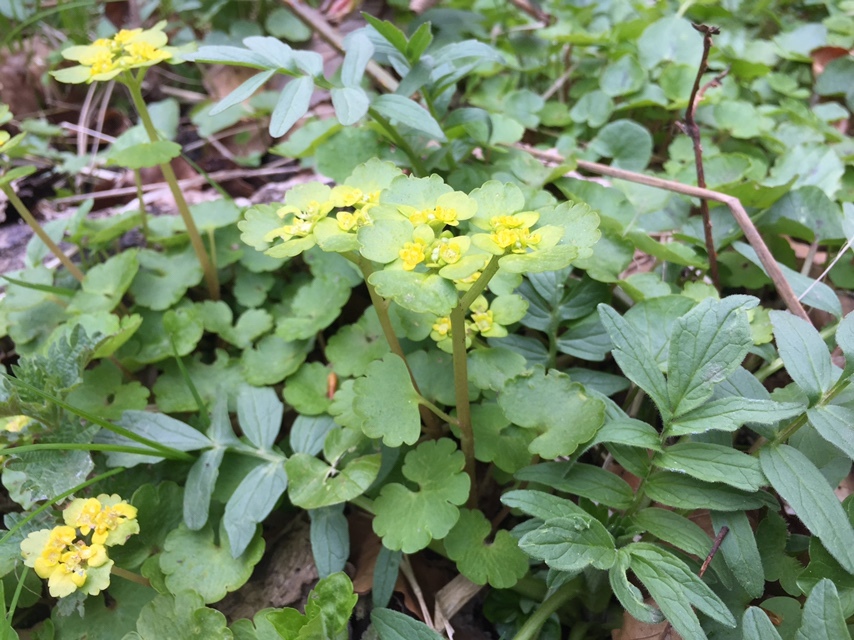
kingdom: Plantae
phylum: Tracheophyta
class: Magnoliopsida
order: Saxifragales
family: Saxifragaceae
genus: Chrysosplenium
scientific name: Chrysosplenium alternifolium
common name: Alternate-leaved golden-saxifrage
